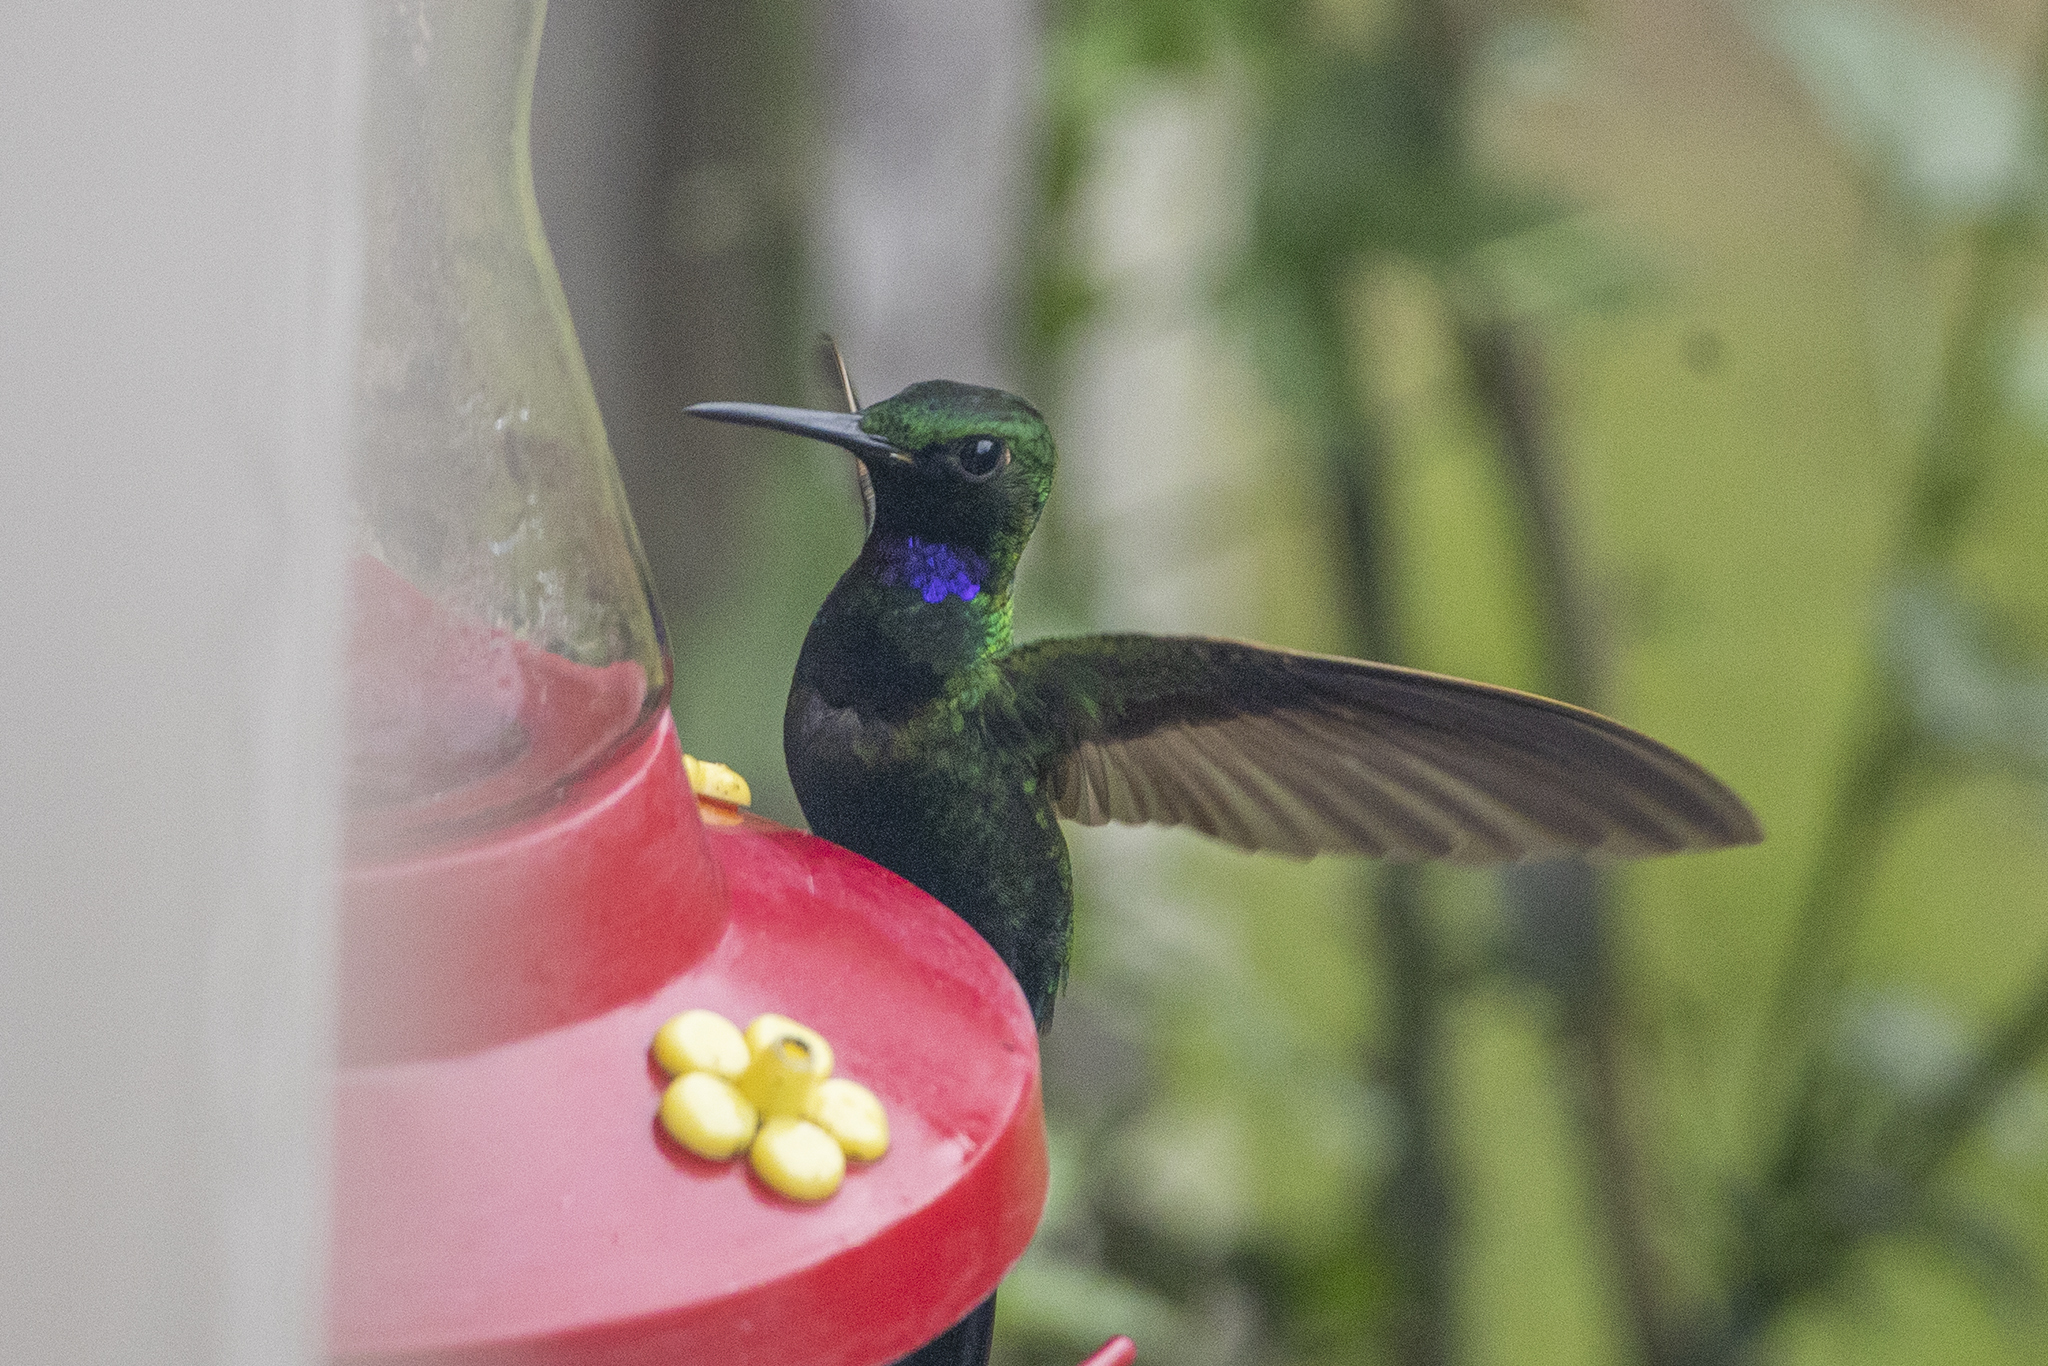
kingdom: Animalia
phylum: Chordata
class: Aves
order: Apodiformes
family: Trochilidae
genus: Heliodoxa
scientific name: Heliodoxa schreibersii
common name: Black-throated brilliant
